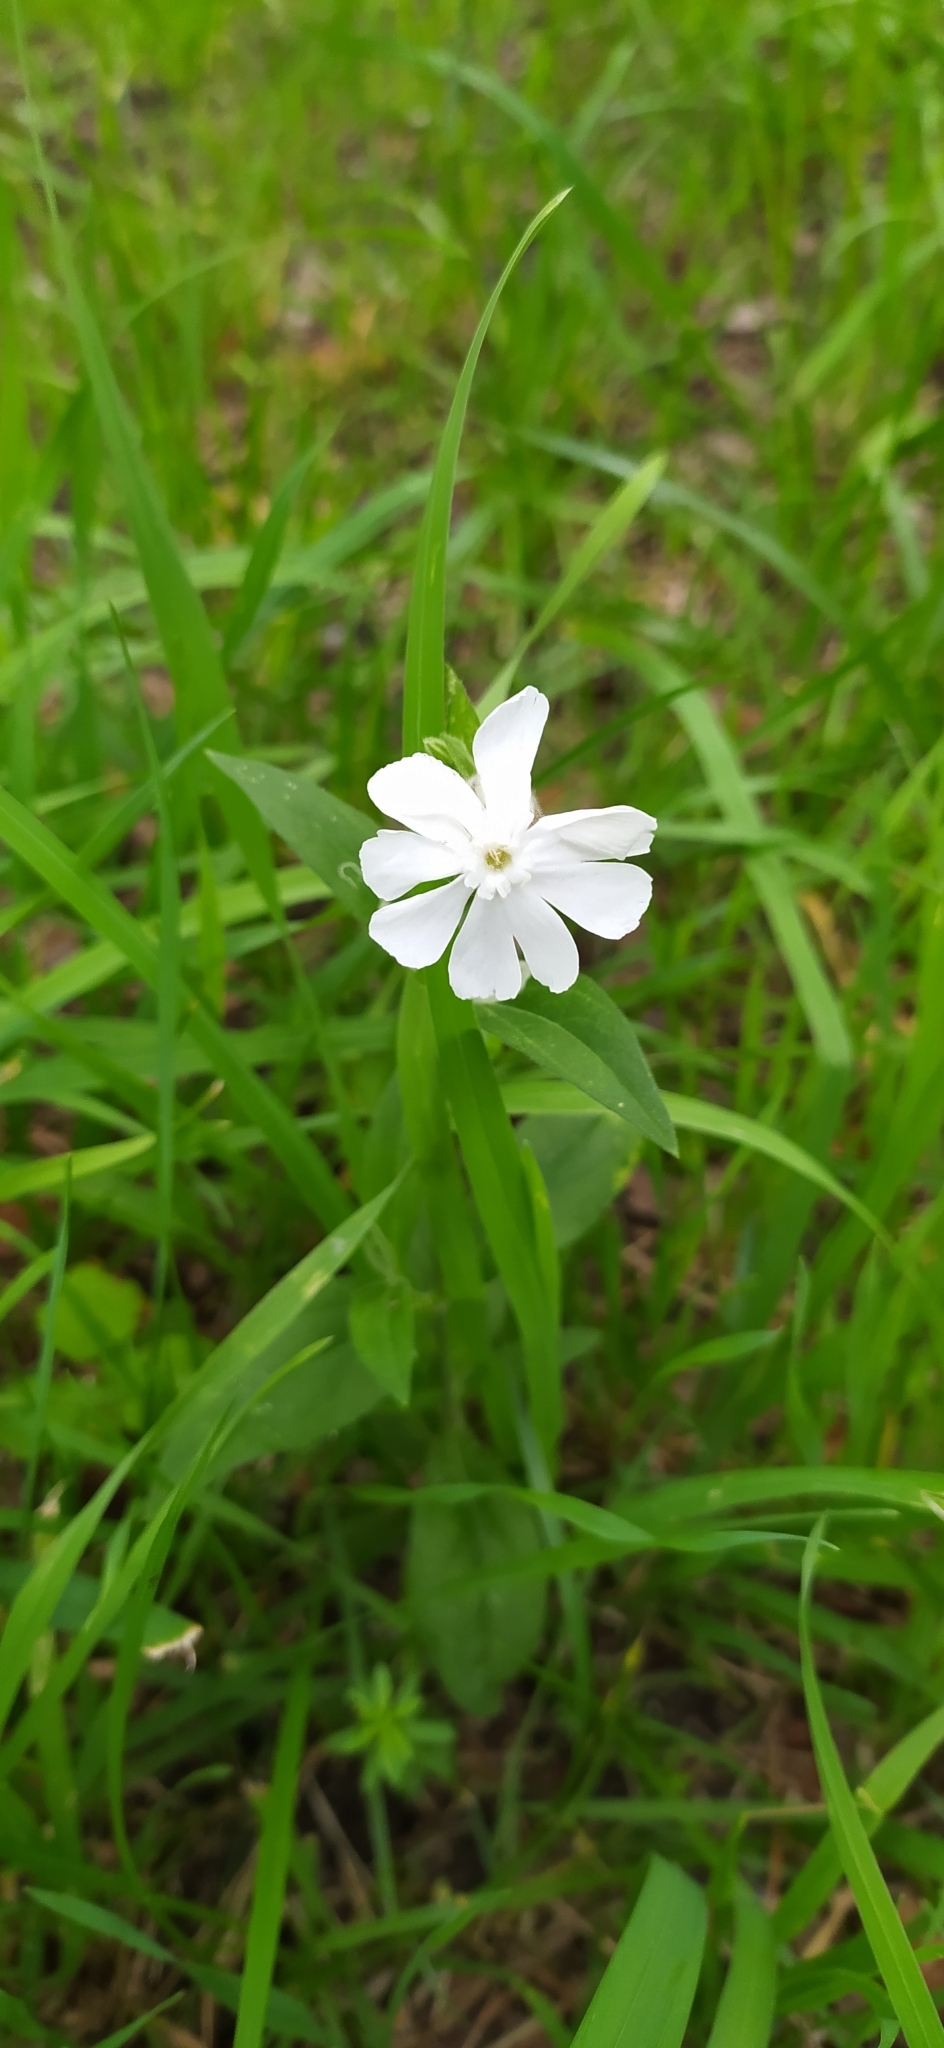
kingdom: Plantae
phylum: Tracheophyta
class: Magnoliopsida
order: Caryophyllales
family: Caryophyllaceae
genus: Silene
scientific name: Silene latifolia
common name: White campion
